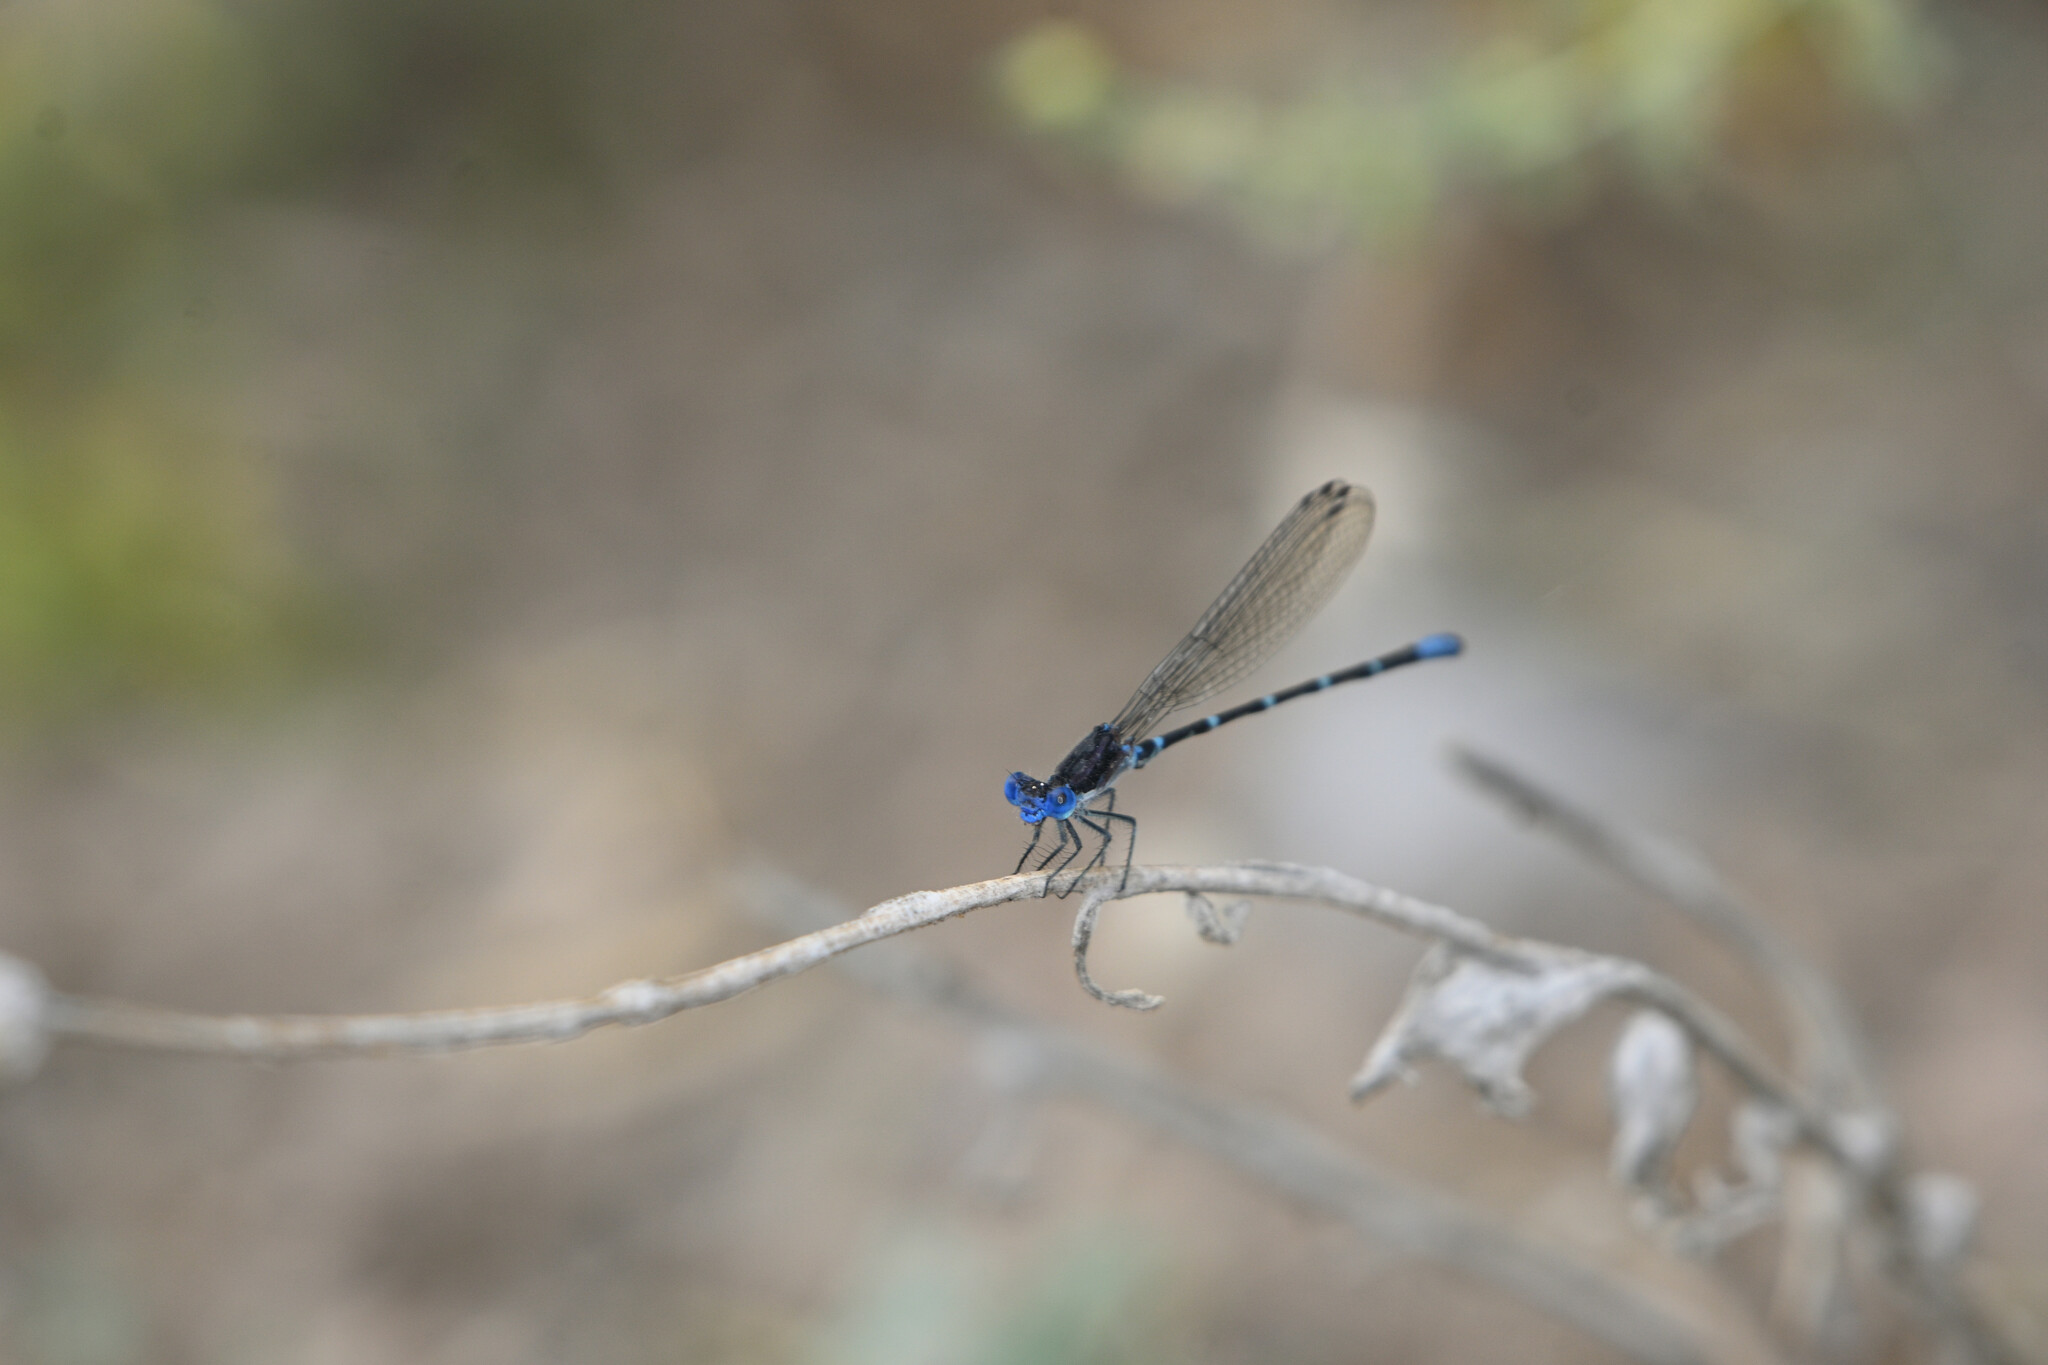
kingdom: Animalia
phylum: Arthropoda
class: Insecta
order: Odonata
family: Coenagrionidae
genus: Argia
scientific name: Argia sedula
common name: Blue-ringed dancer
